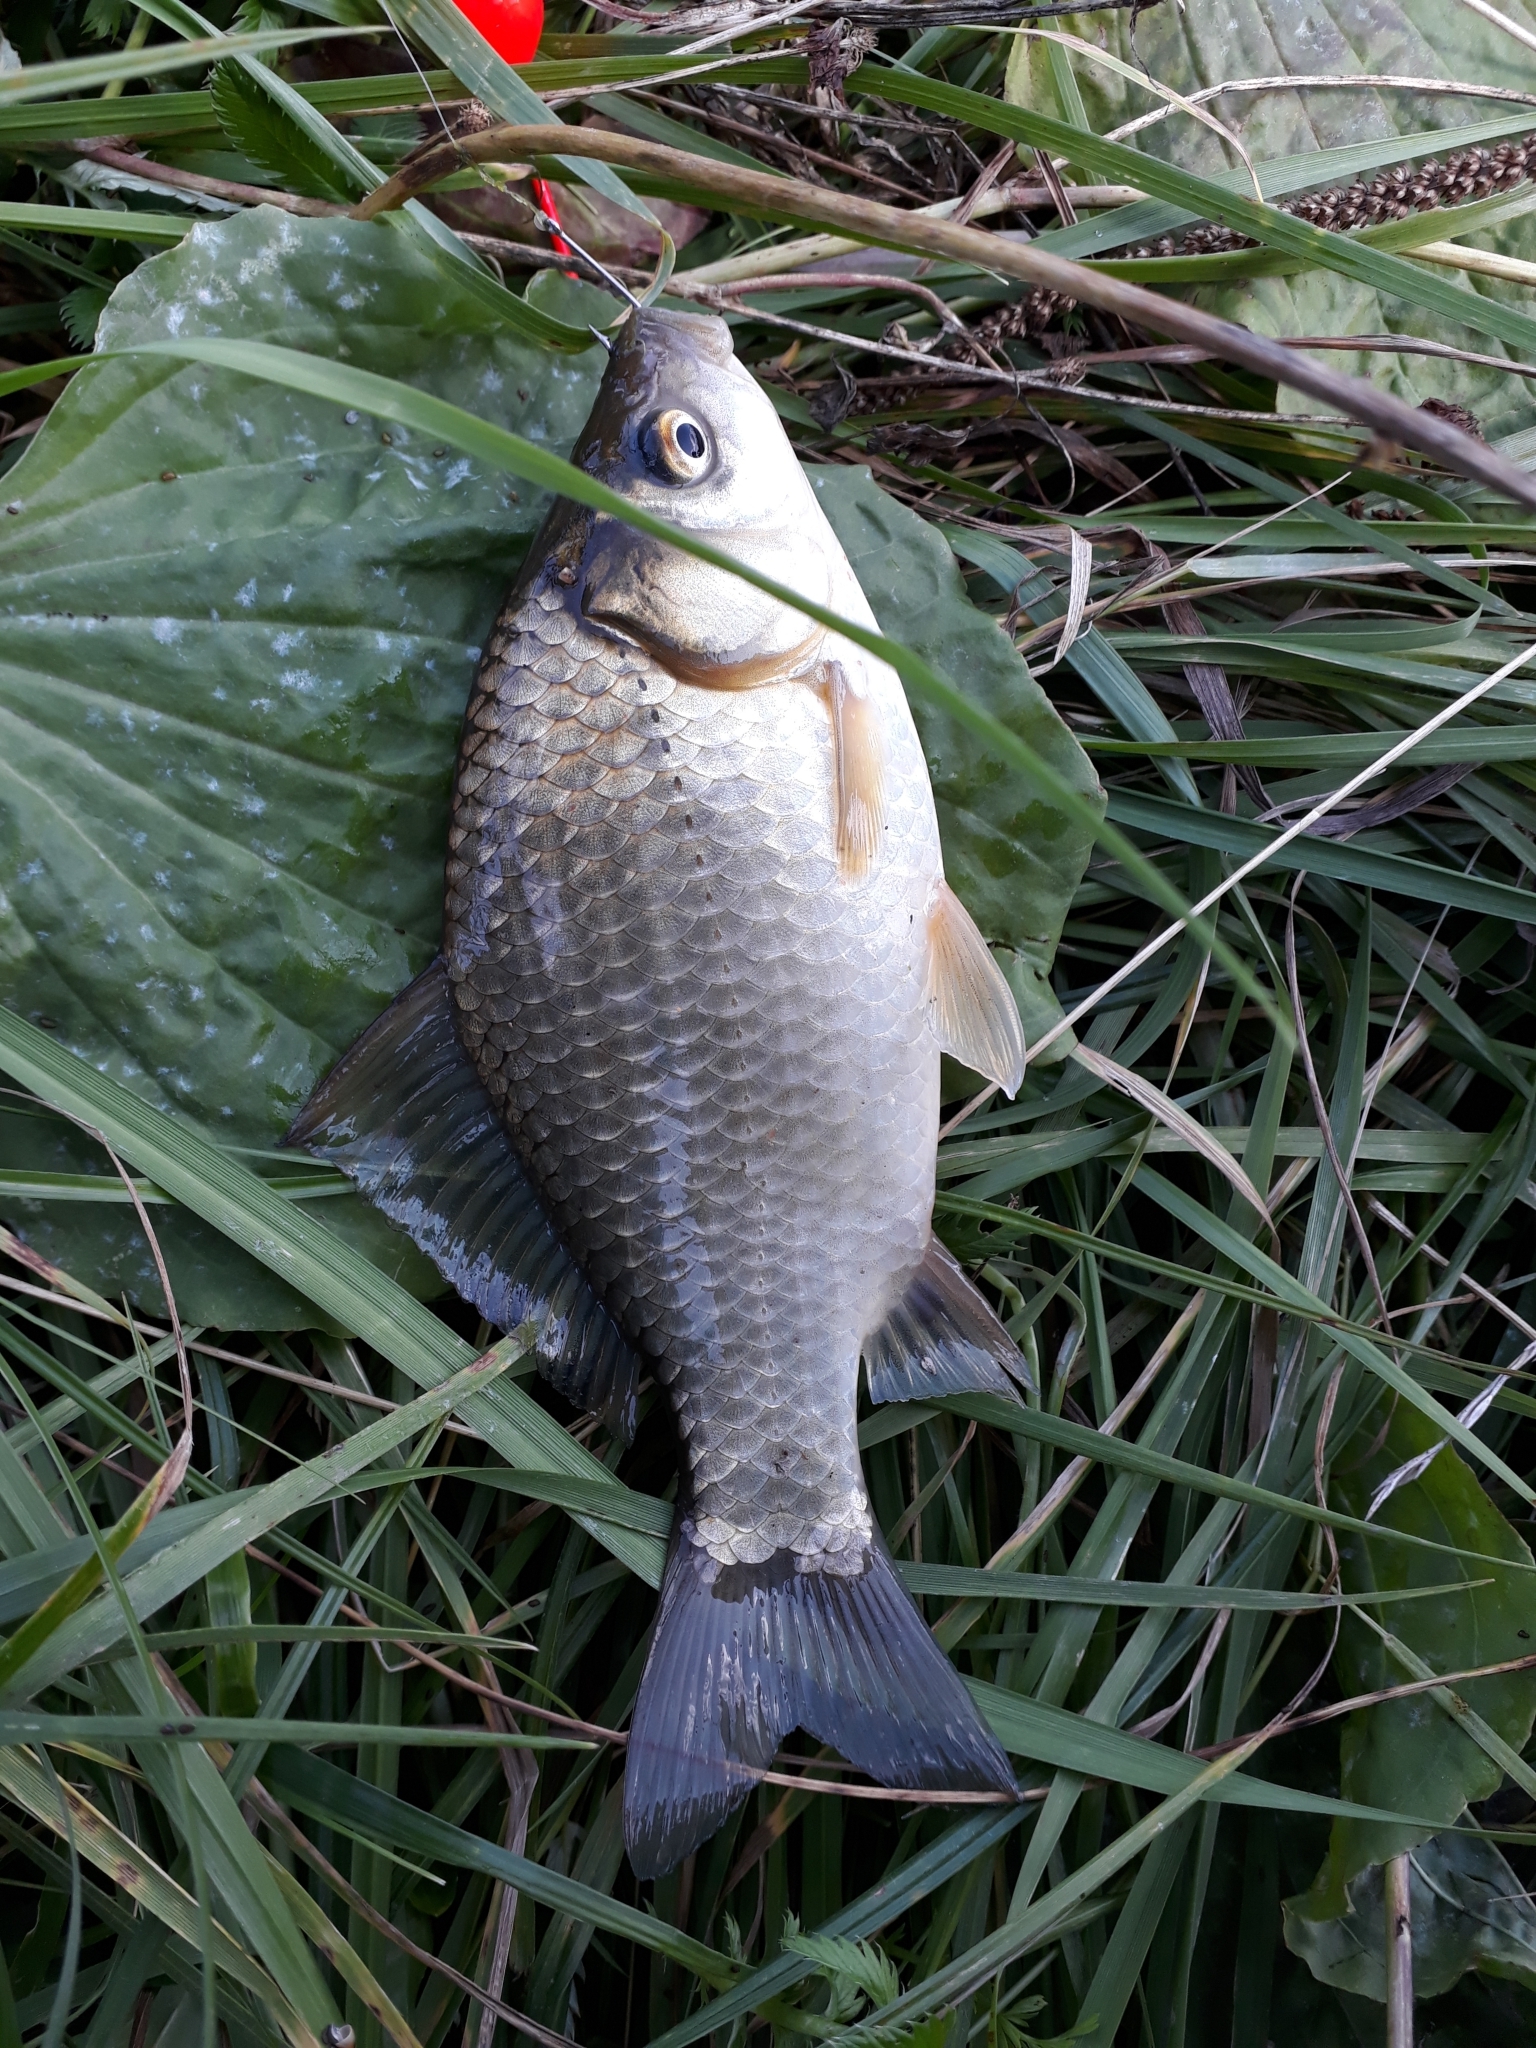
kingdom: Animalia
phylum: Chordata
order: Cypriniformes
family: Cyprinidae
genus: Carassius
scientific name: Carassius gibelio
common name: Prussian carp
